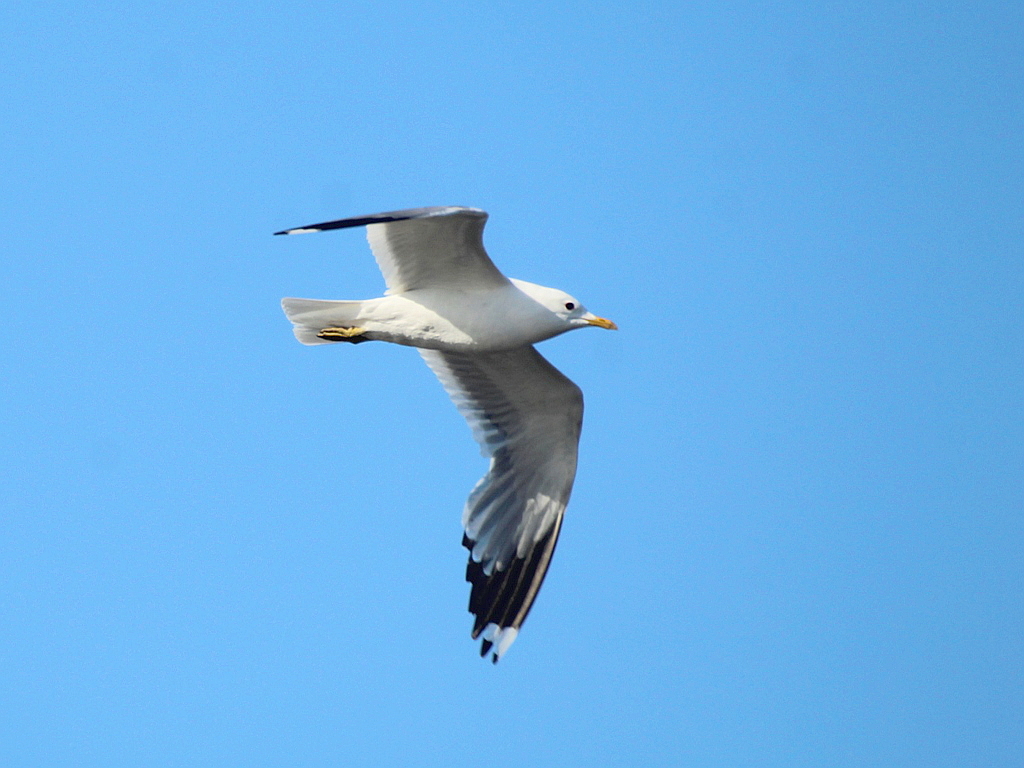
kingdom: Animalia
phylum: Chordata
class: Aves
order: Charadriiformes
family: Laridae
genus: Larus
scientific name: Larus canus
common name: Mew gull
